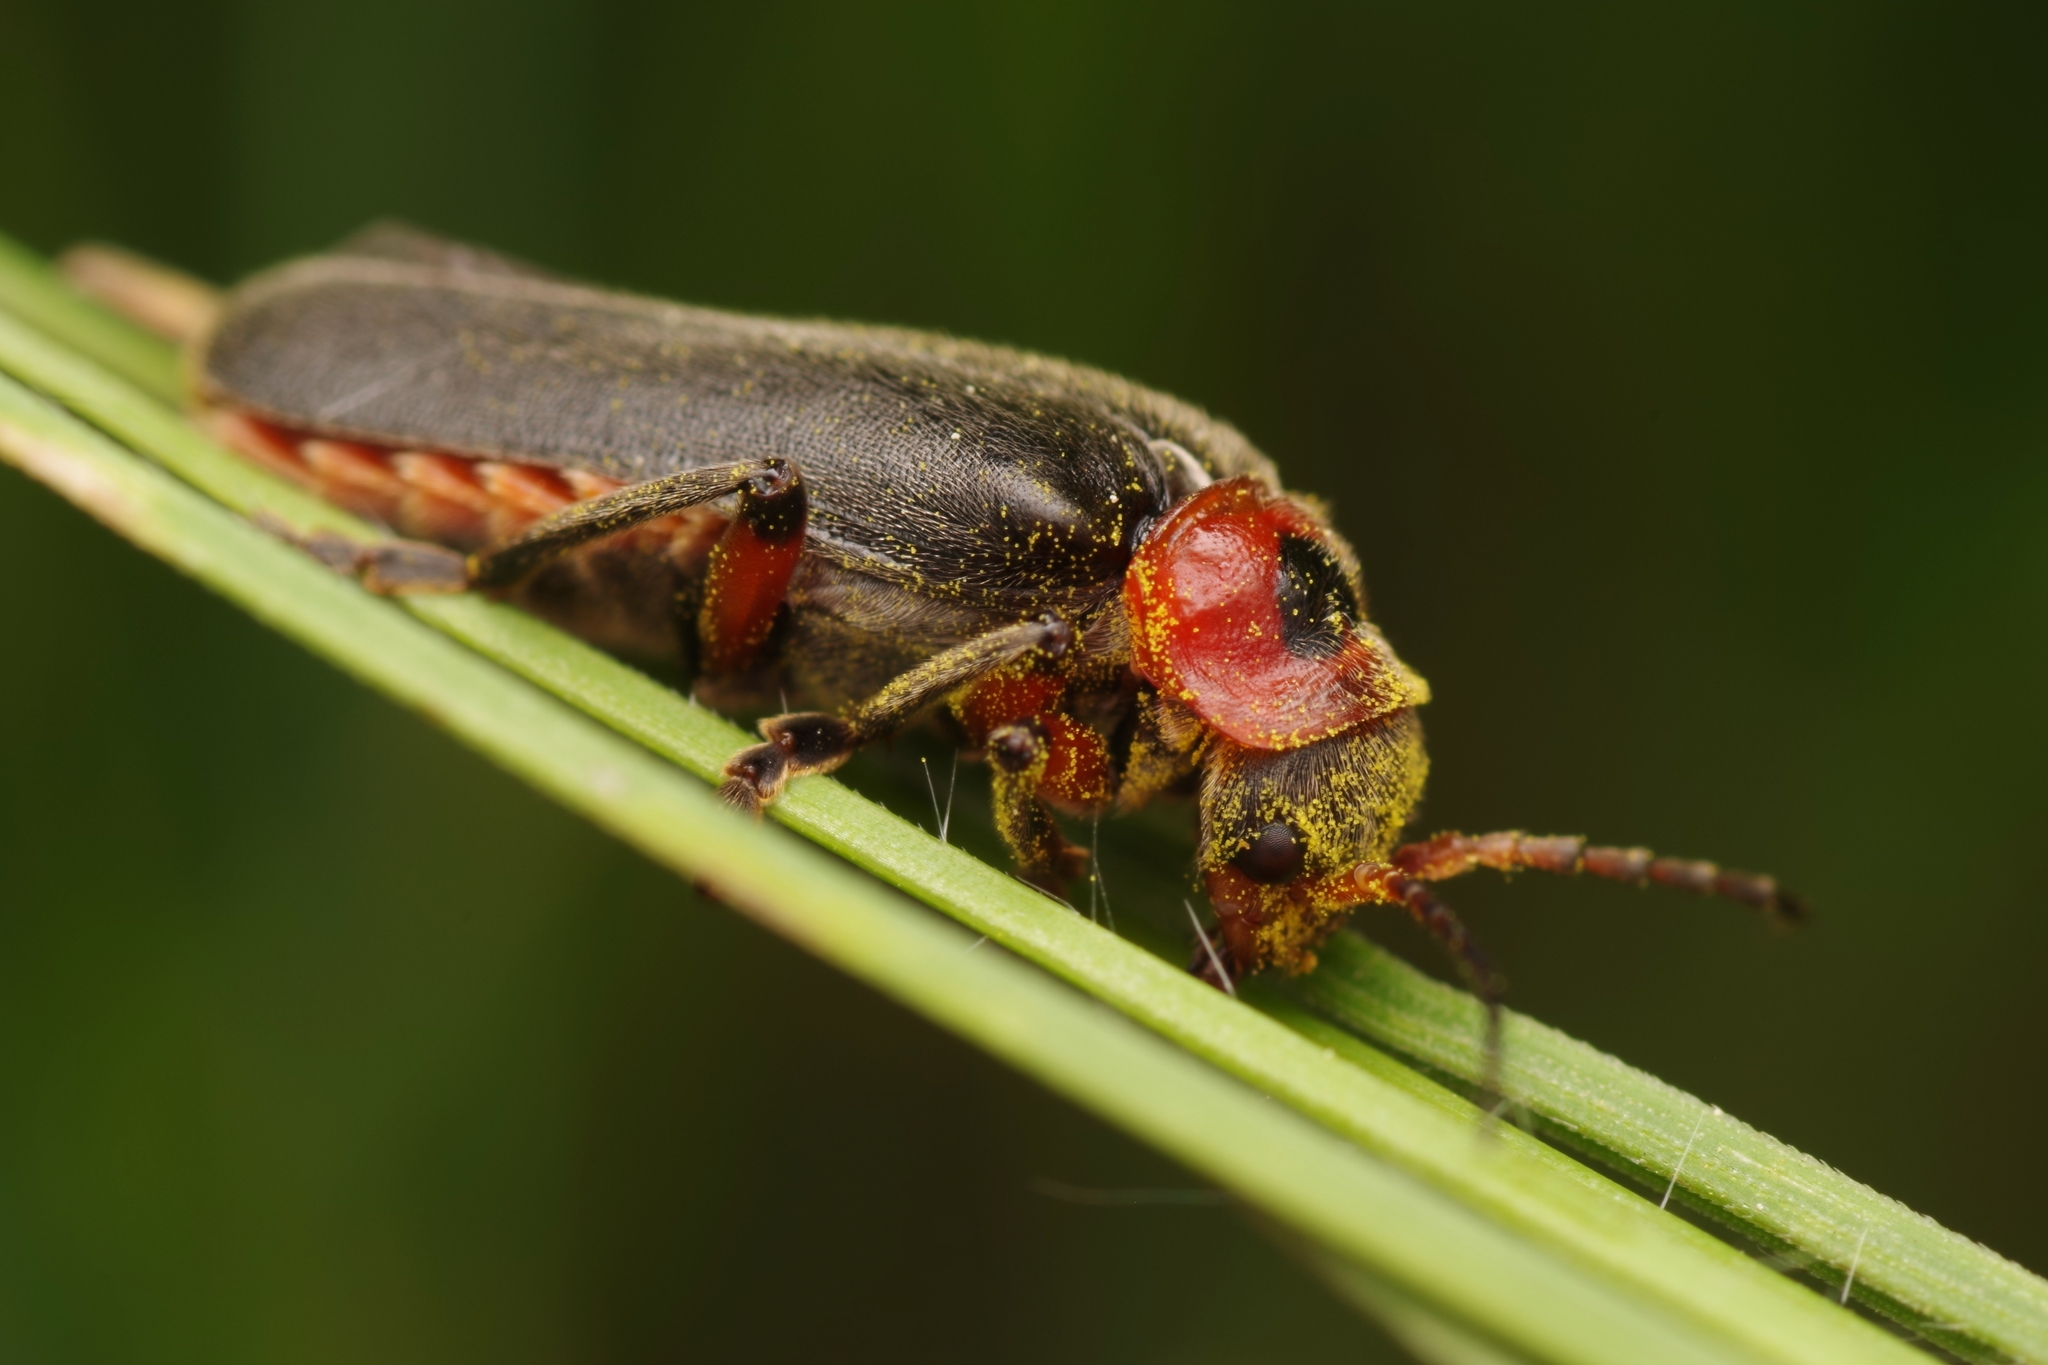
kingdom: Animalia
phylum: Arthropoda
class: Insecta
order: Coleoptera
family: Cantharidae
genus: Cantharis
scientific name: Cantharis rustica
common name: Soldier beetle
